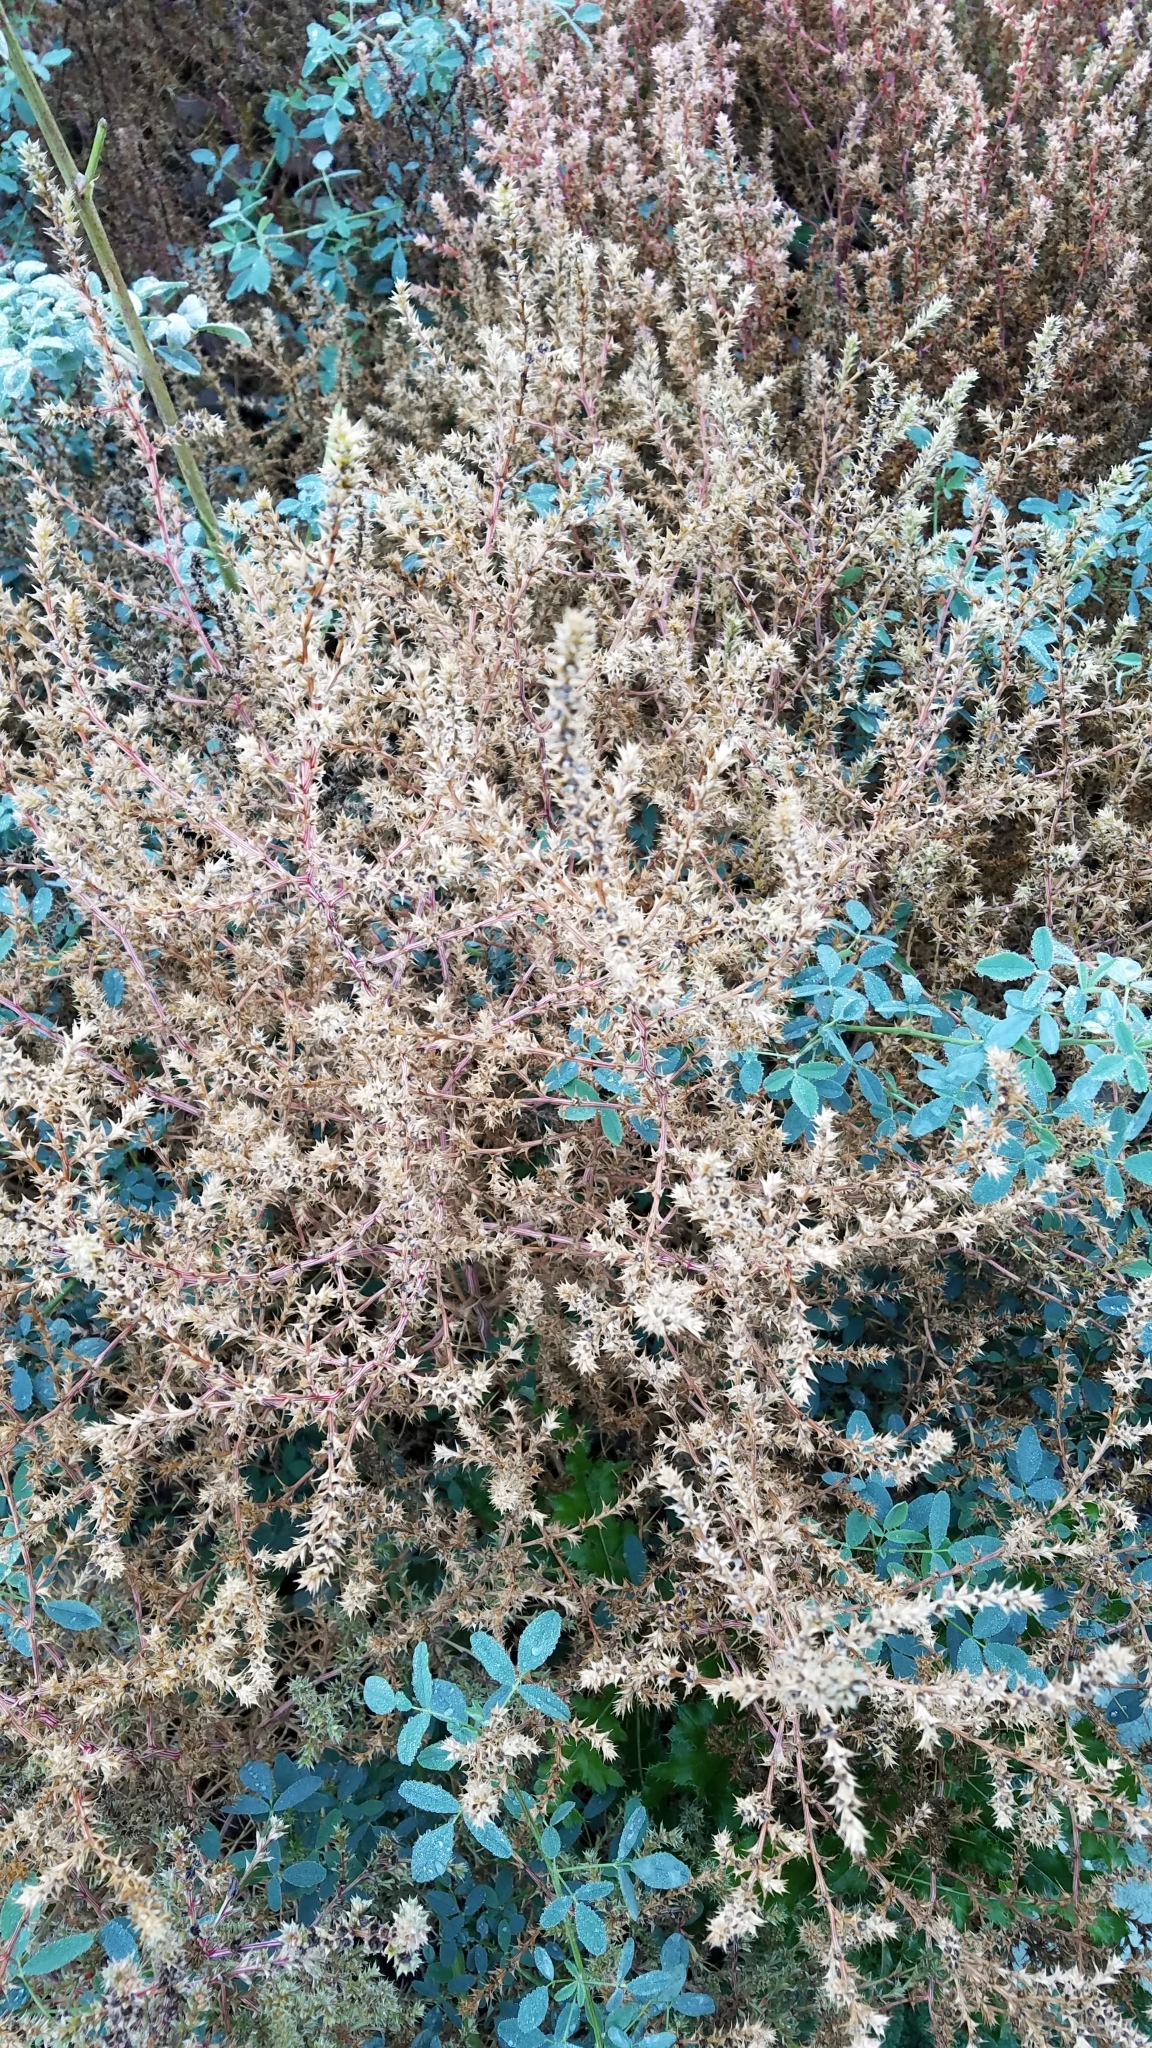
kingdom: Plantae
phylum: Tracheophyta
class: Magnoliopsida
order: Caryophyllales
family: Amaranthaceae
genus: Salsola
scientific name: Salsola tragus
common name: Prickly russian thistle
